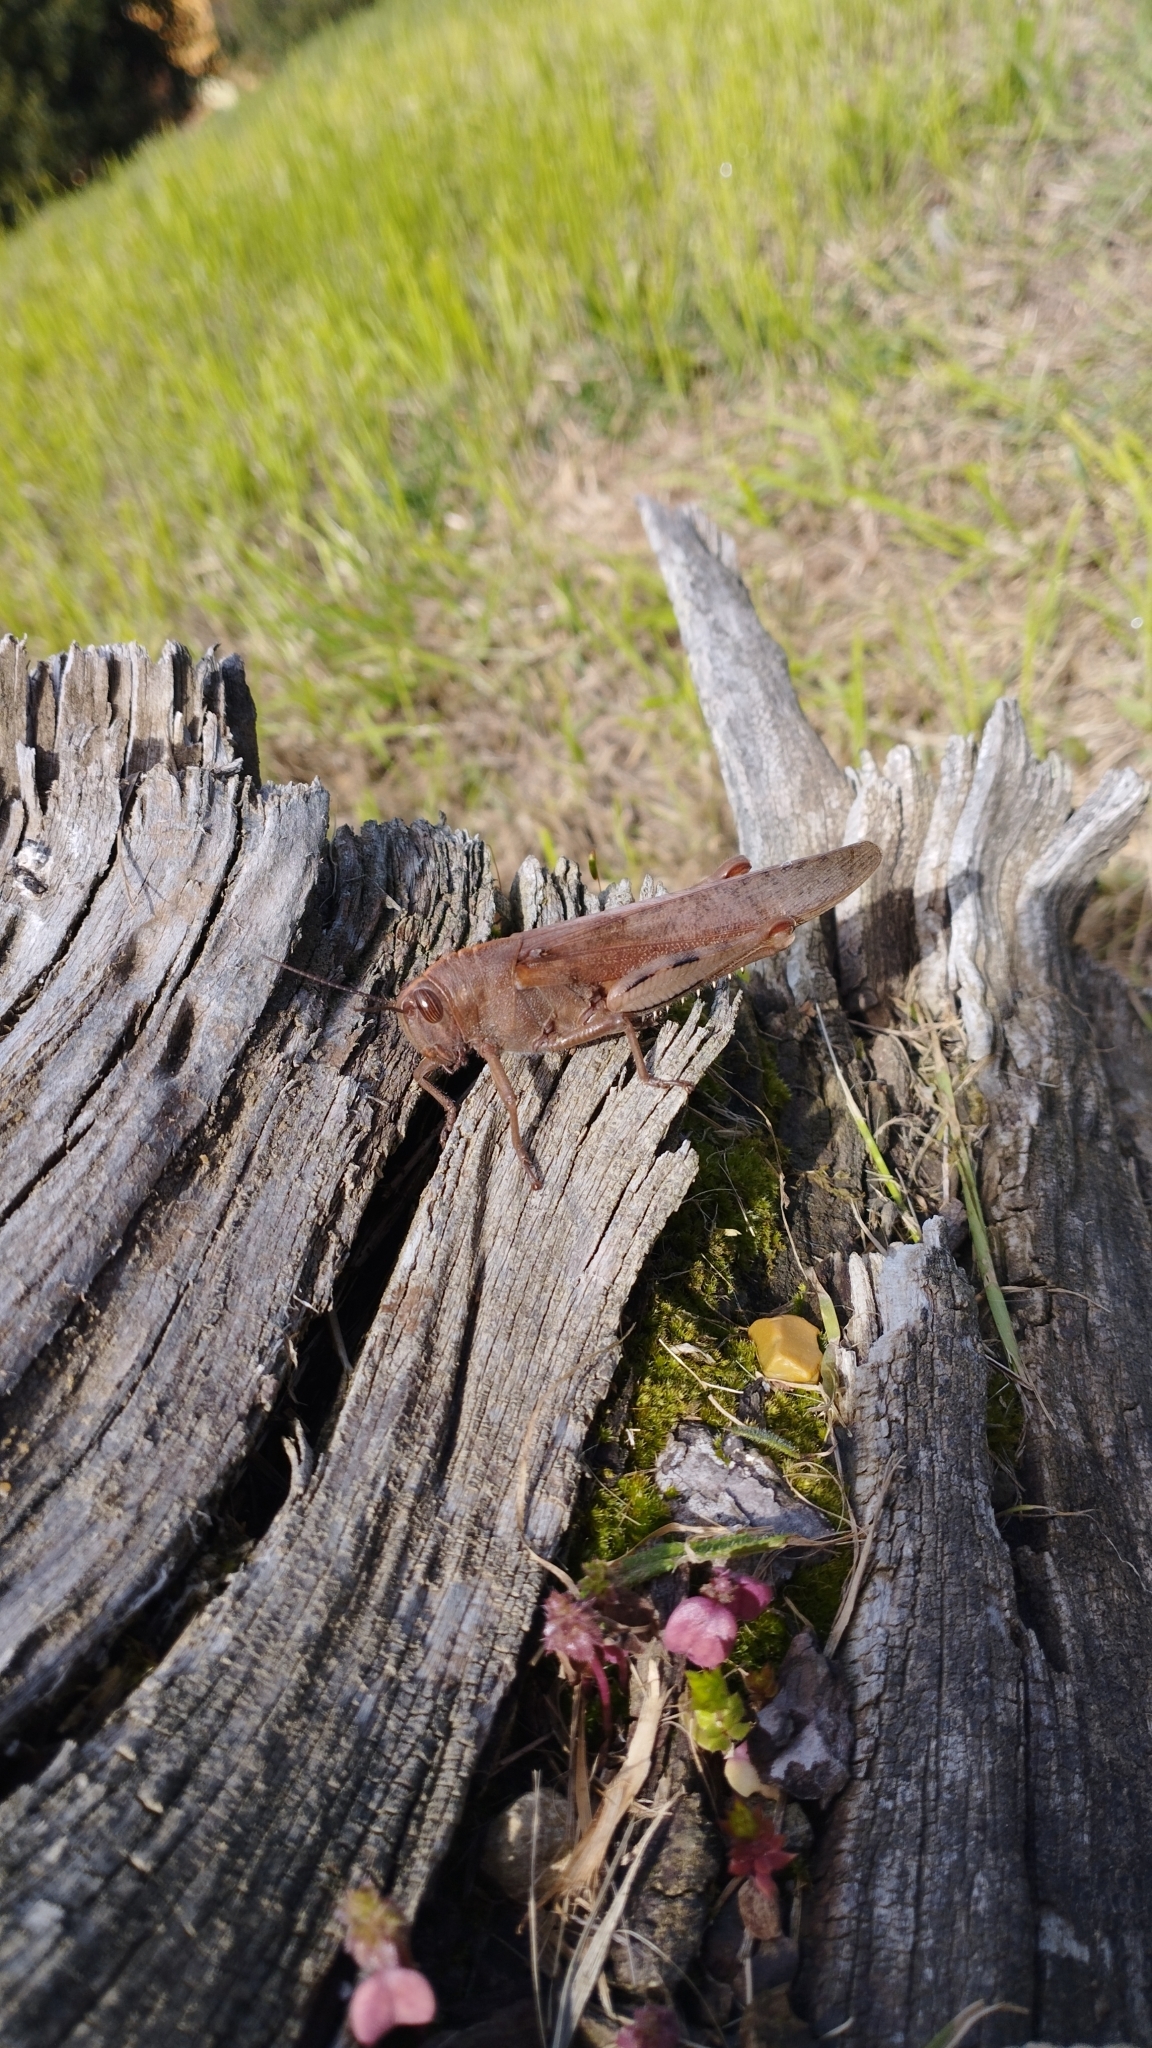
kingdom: Animalia
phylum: Arthropoda
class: Insecta
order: Orthoptera
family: Acrididae
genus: Anacridium
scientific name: Anacridium aegyptium
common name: Egyptian grasshopper
